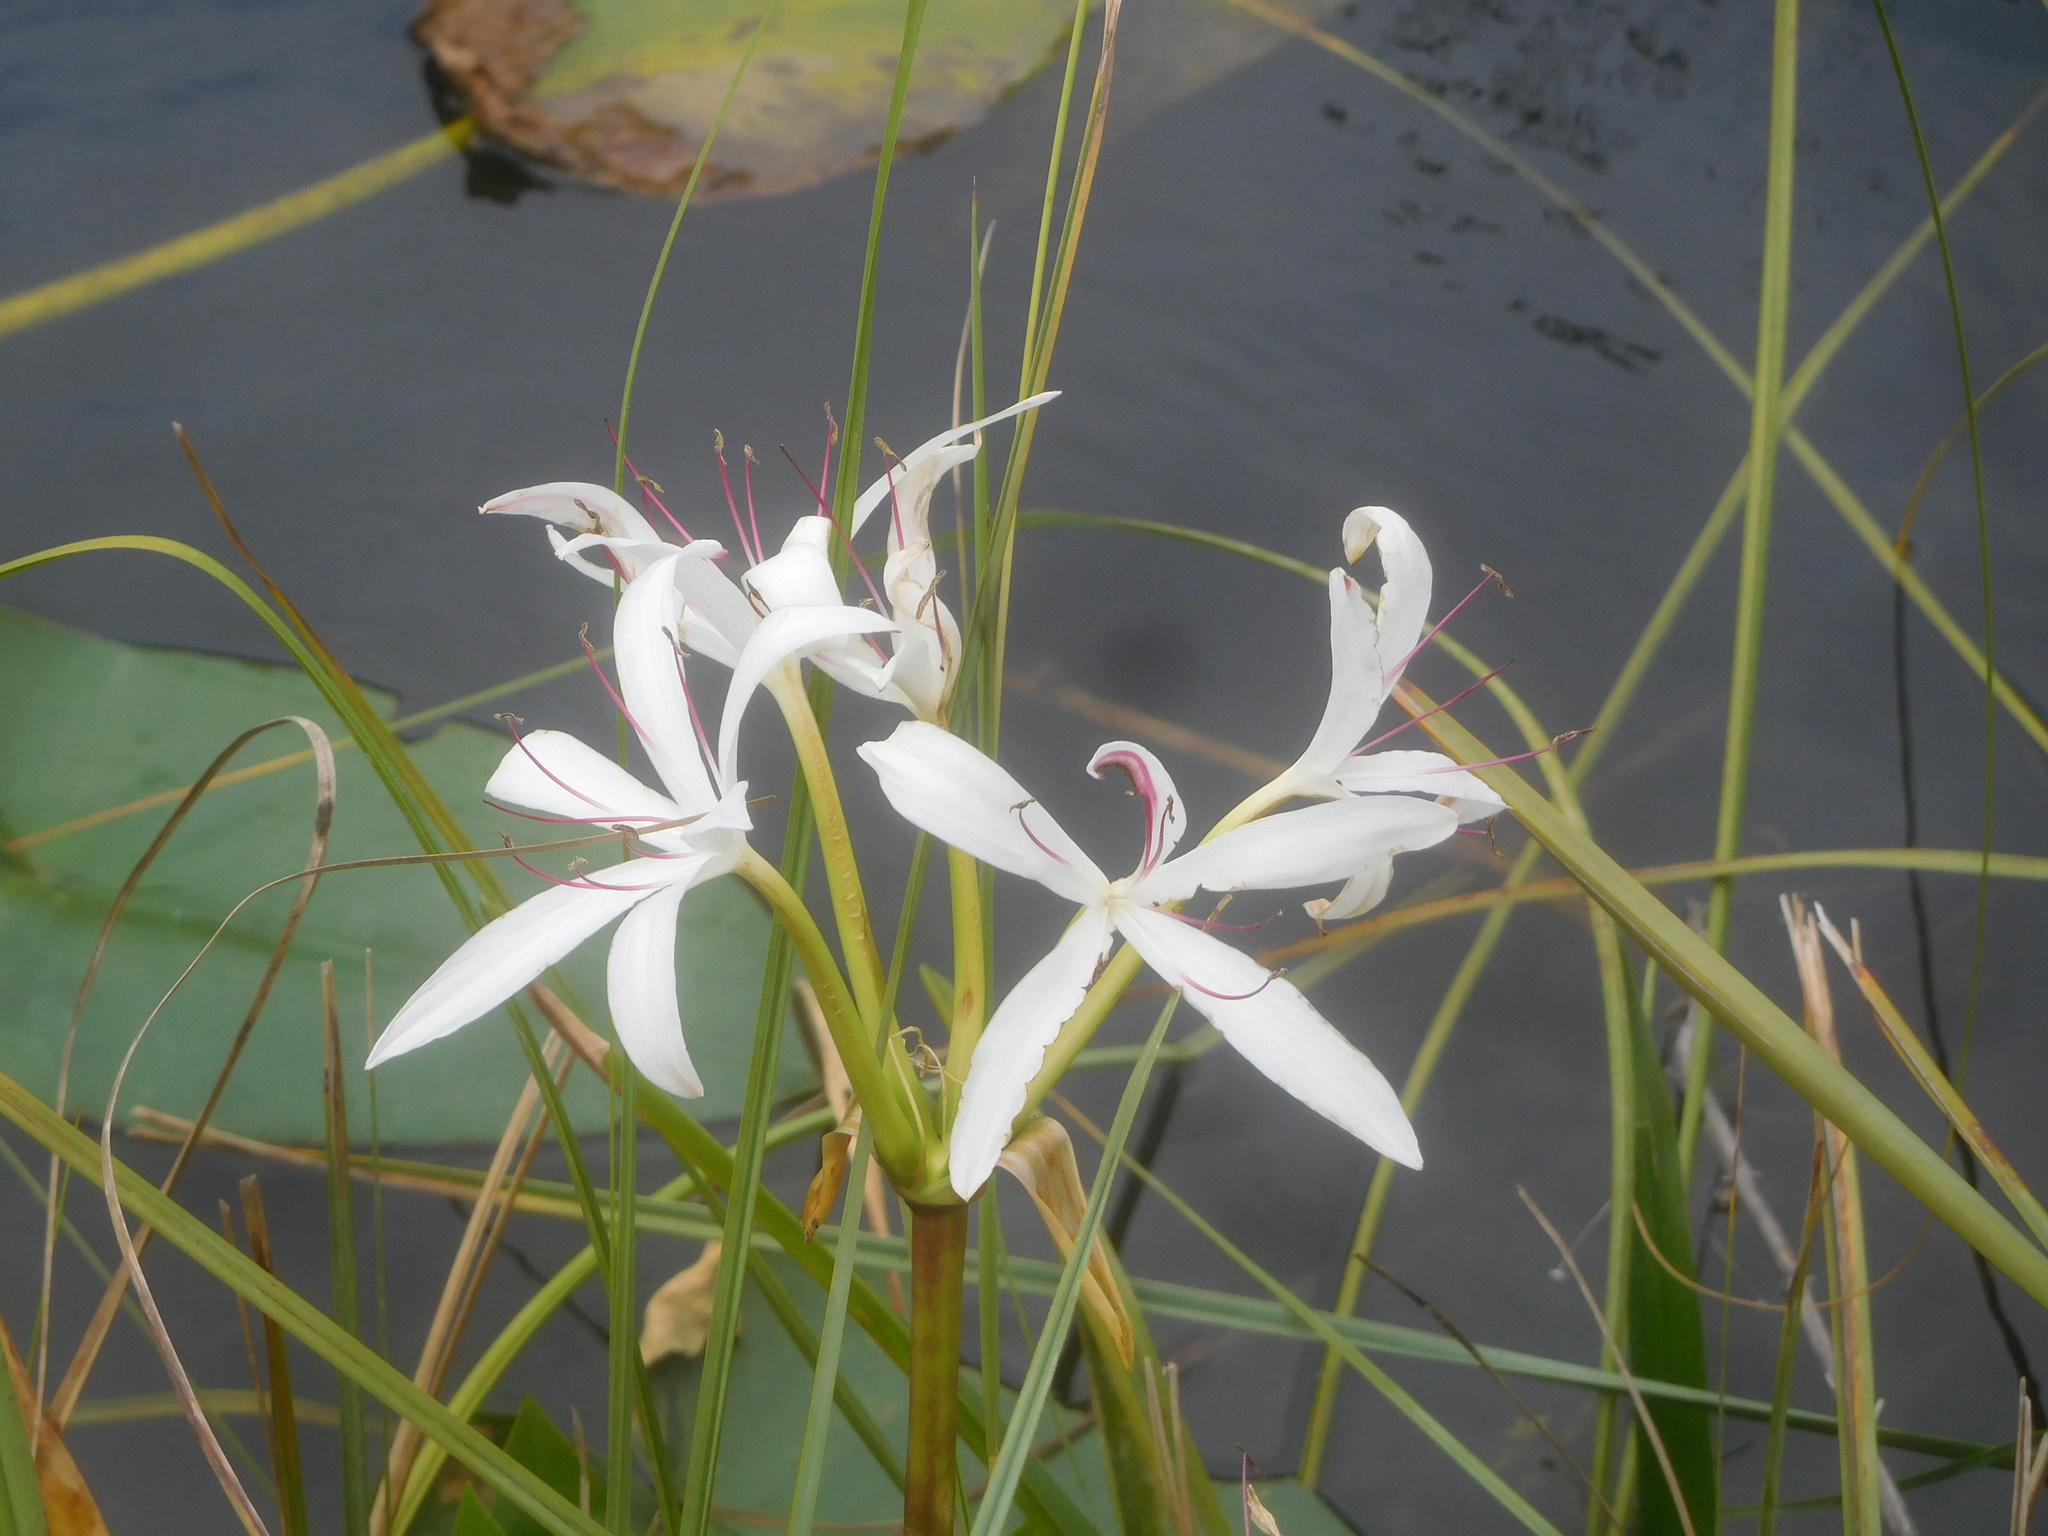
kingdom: Plantae
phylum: Tracheophyta
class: Liliopsida
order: Asparagales
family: Amaryllidaceae
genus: Crinum
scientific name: Crinum americanum
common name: Florida swamp-lily
